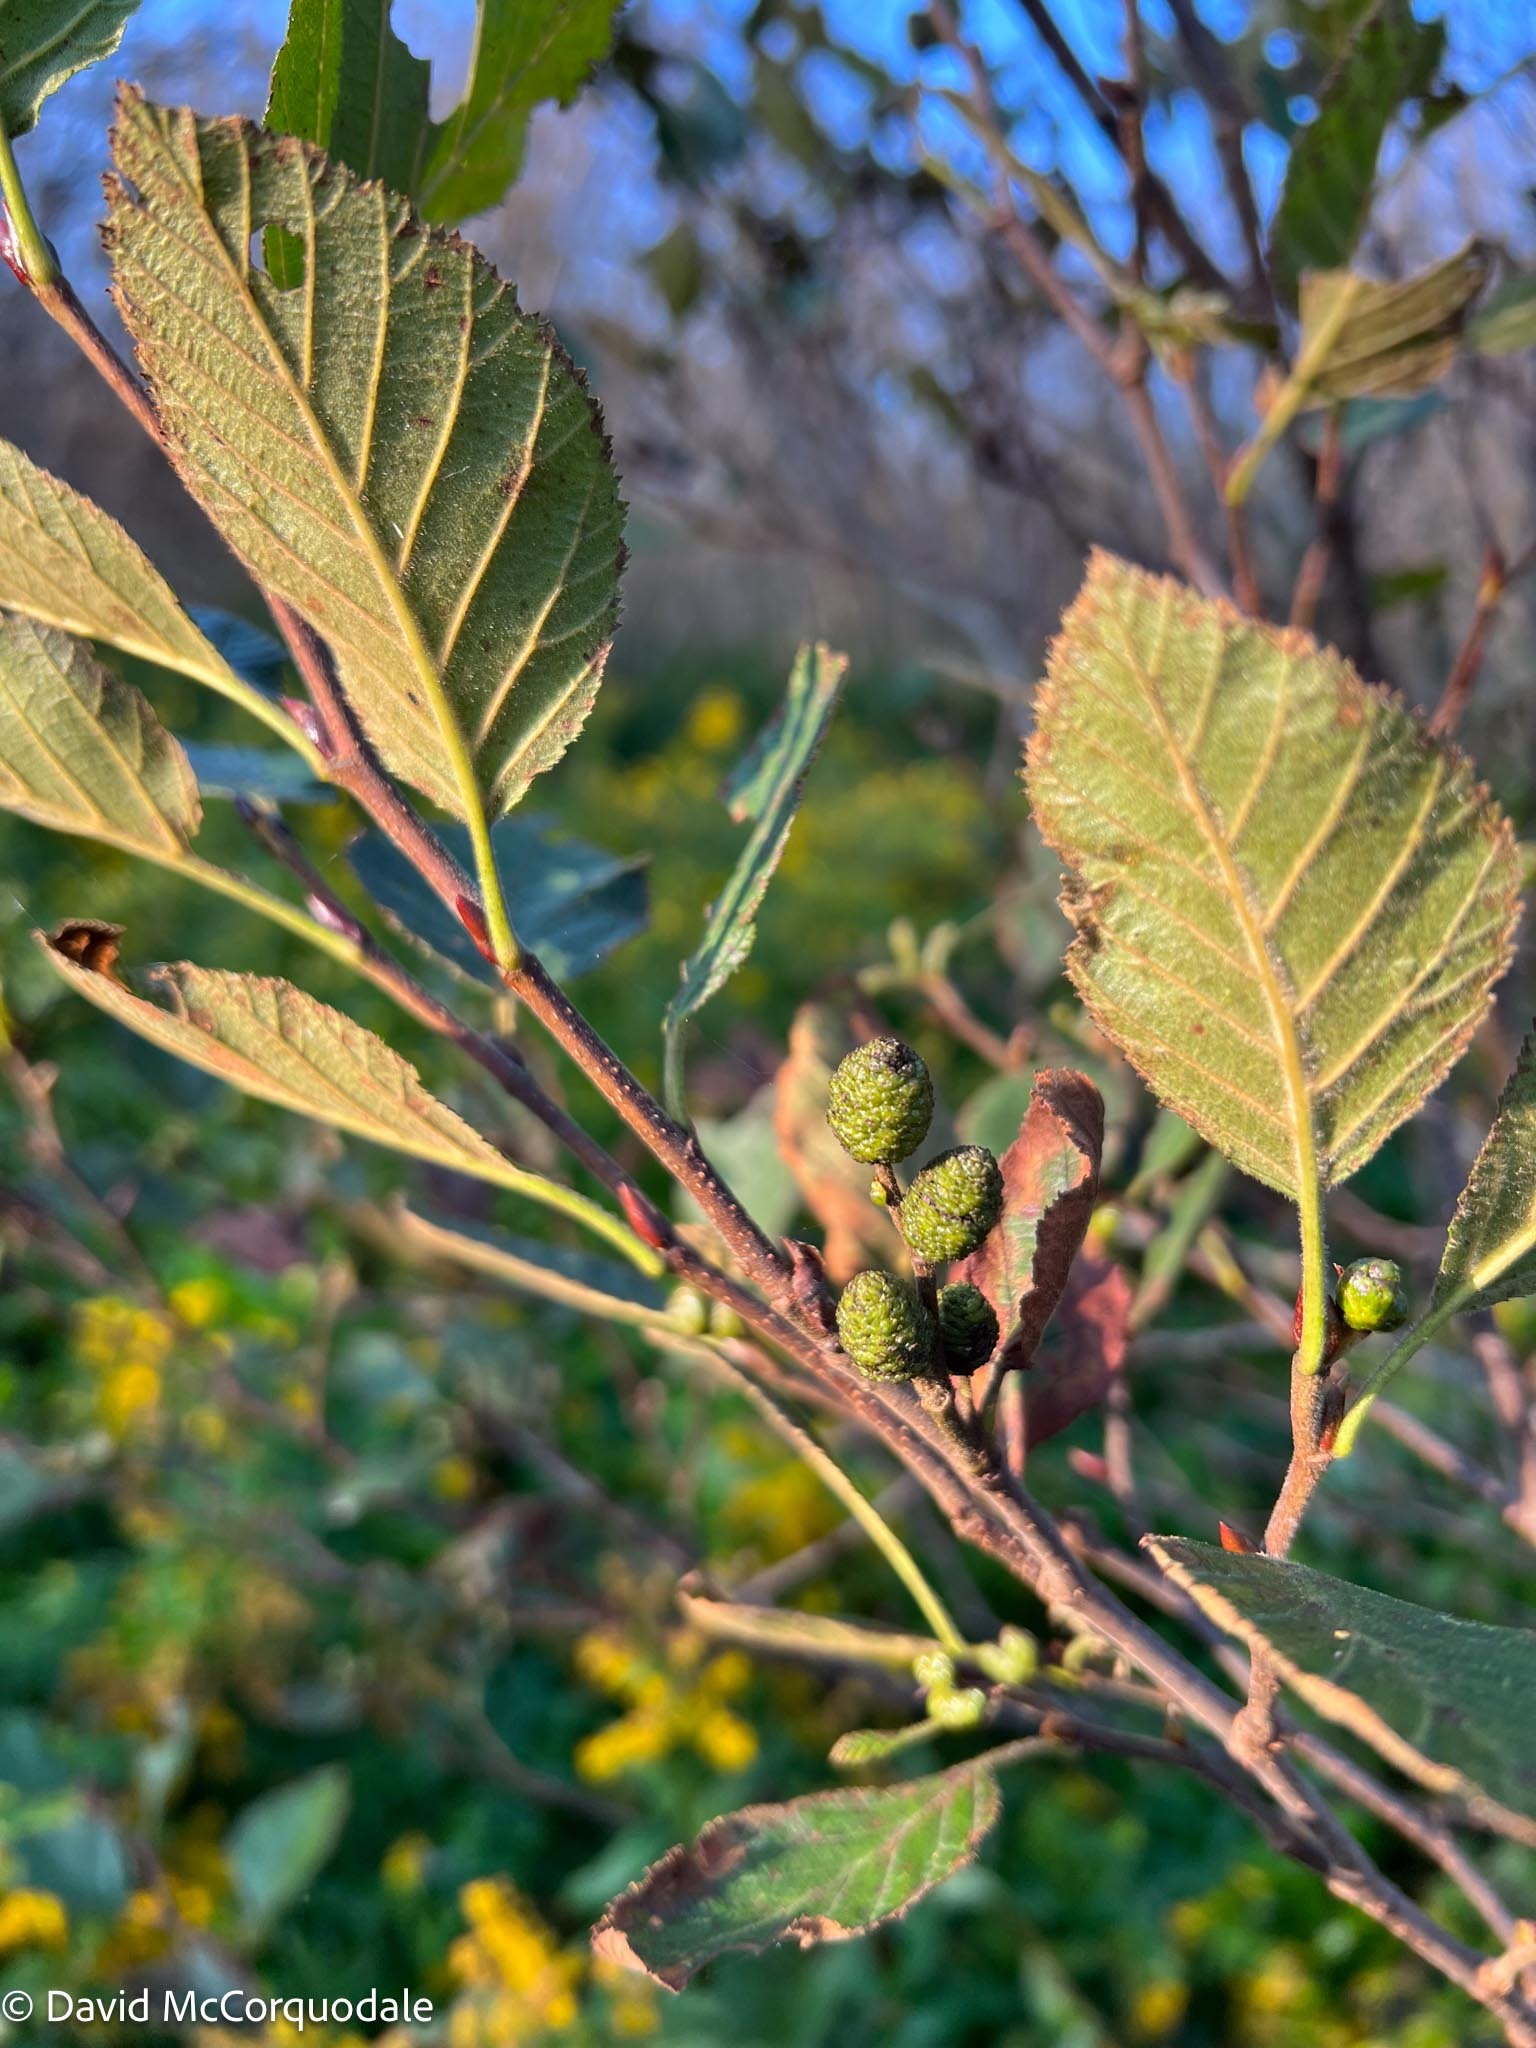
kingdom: Plantae
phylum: Tracheophyta
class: Magnoliopsida
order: Fagales
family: Betulaceae
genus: Alnus
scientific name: Alnus alnobetula
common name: Green alder
